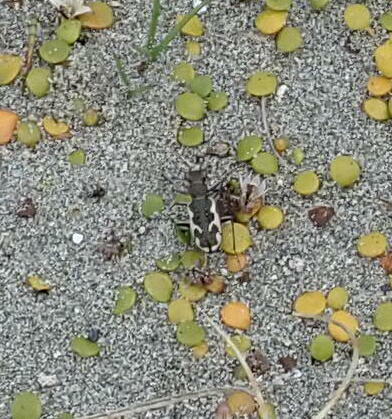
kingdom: Animalia
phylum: Arthropoda
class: Insecta
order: Coleoptera
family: Carabidae
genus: Neocicindela
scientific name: Neocicindela tuberculata
